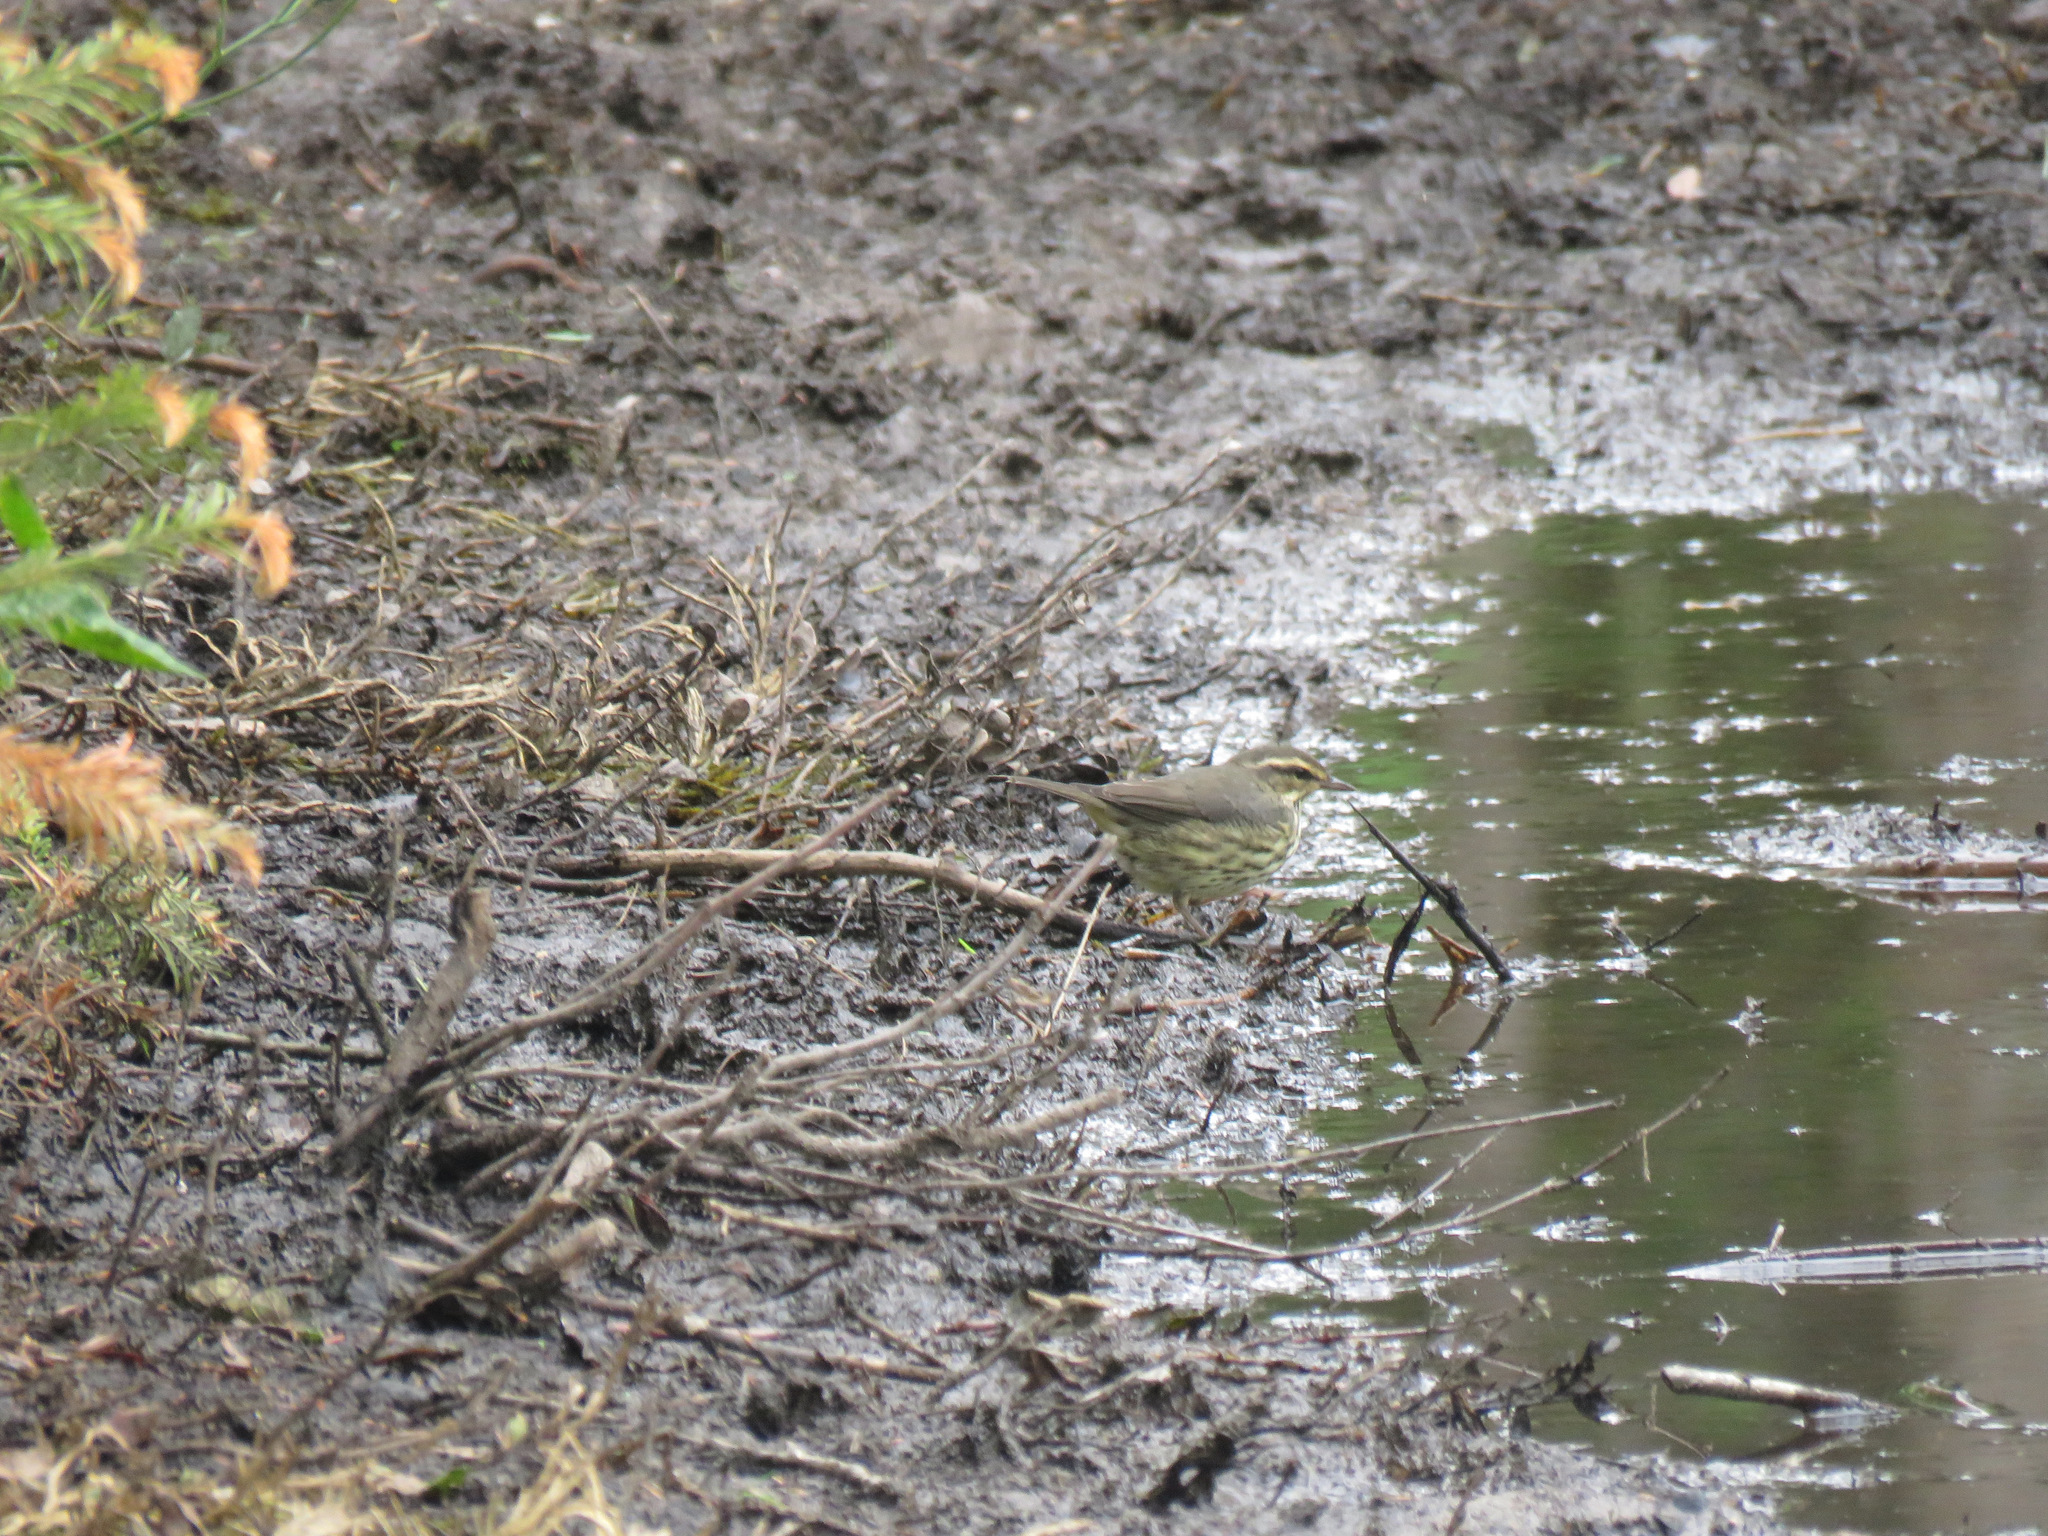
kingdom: Animalia
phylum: Chordata
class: Aves
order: Passeriformes
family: Parulidae
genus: Parkesia
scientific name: Parkesia noveboracensis
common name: Northern waterthrush
